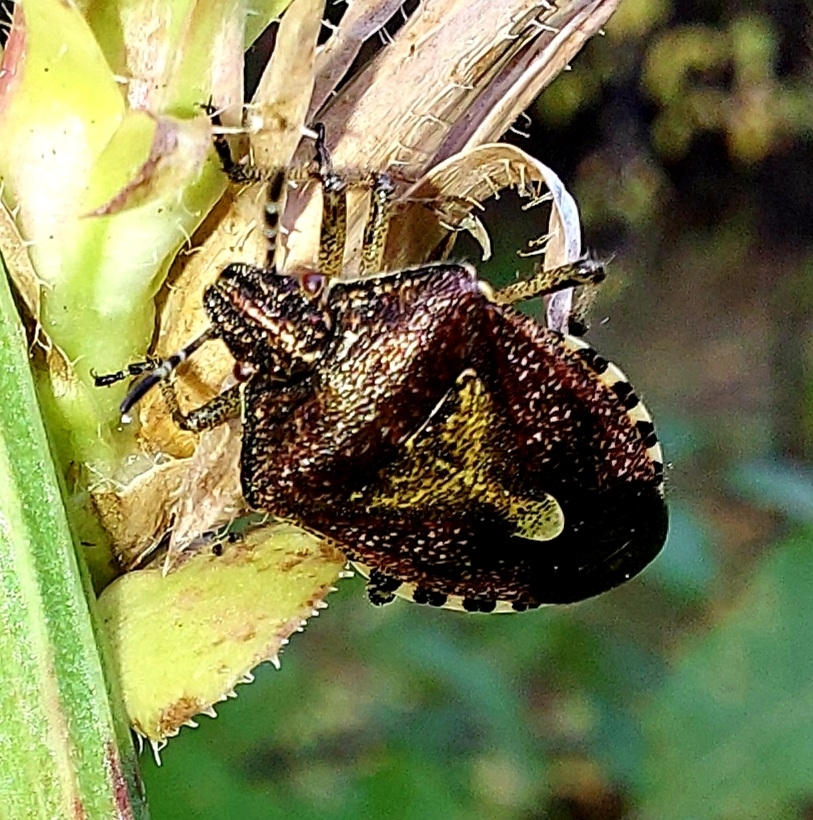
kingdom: Animalia
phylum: Arthropoda
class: Insecta
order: Hemiptera
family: Pentatomidae
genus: Dolycoris
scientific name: Dolycoris baccarum
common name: Sloe bug
